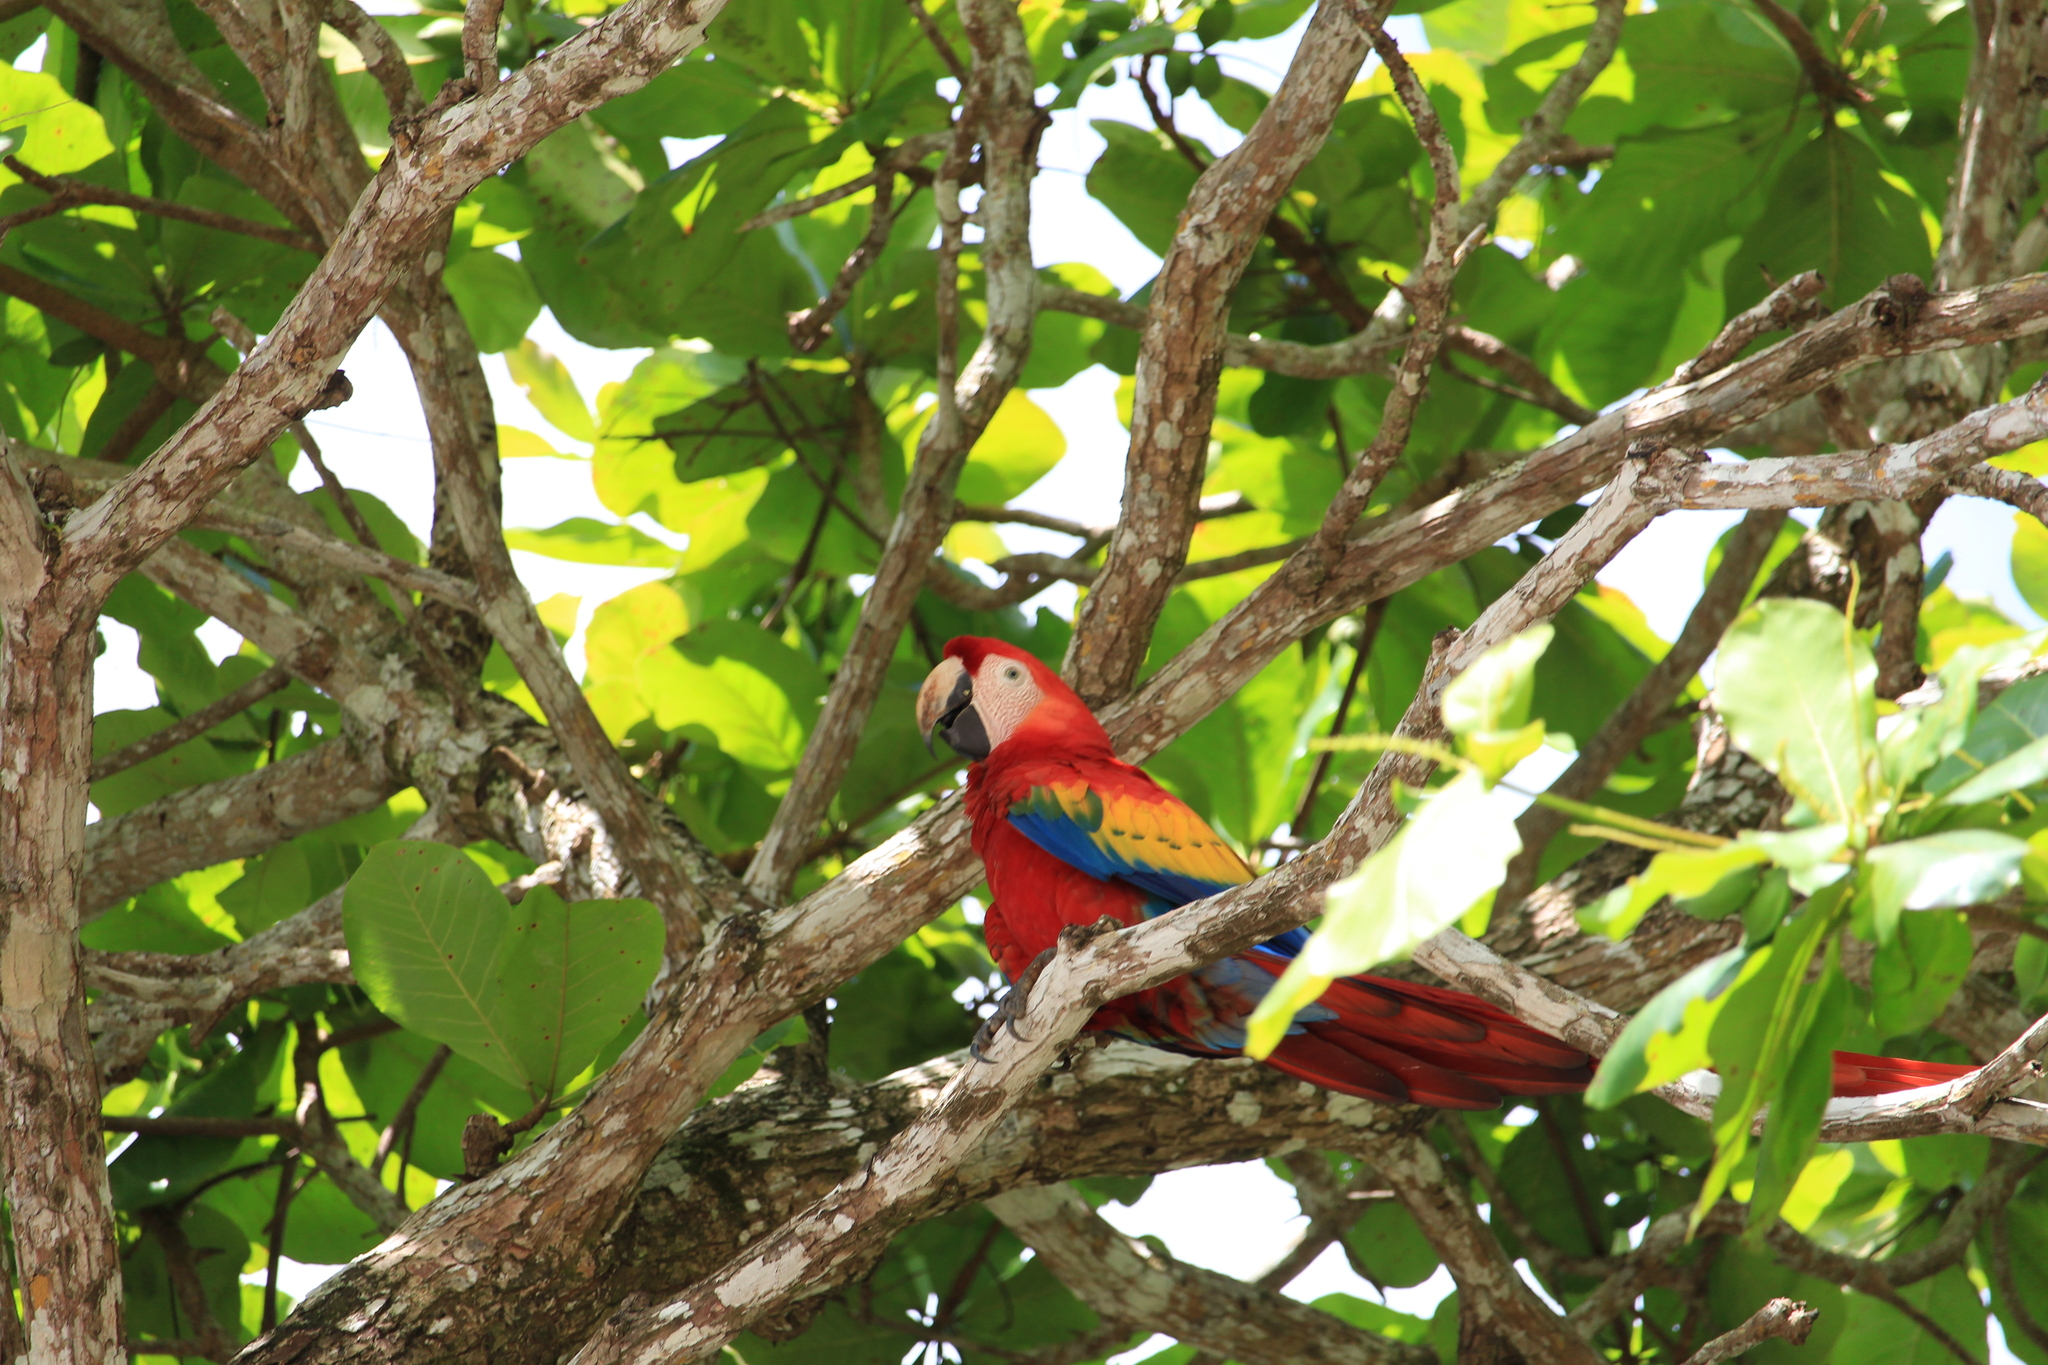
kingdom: Animalia
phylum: Chordata
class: Aves
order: Psittaciformes
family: Psittacidae
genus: Ara
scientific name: Ara macao
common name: Scarlet macaw
